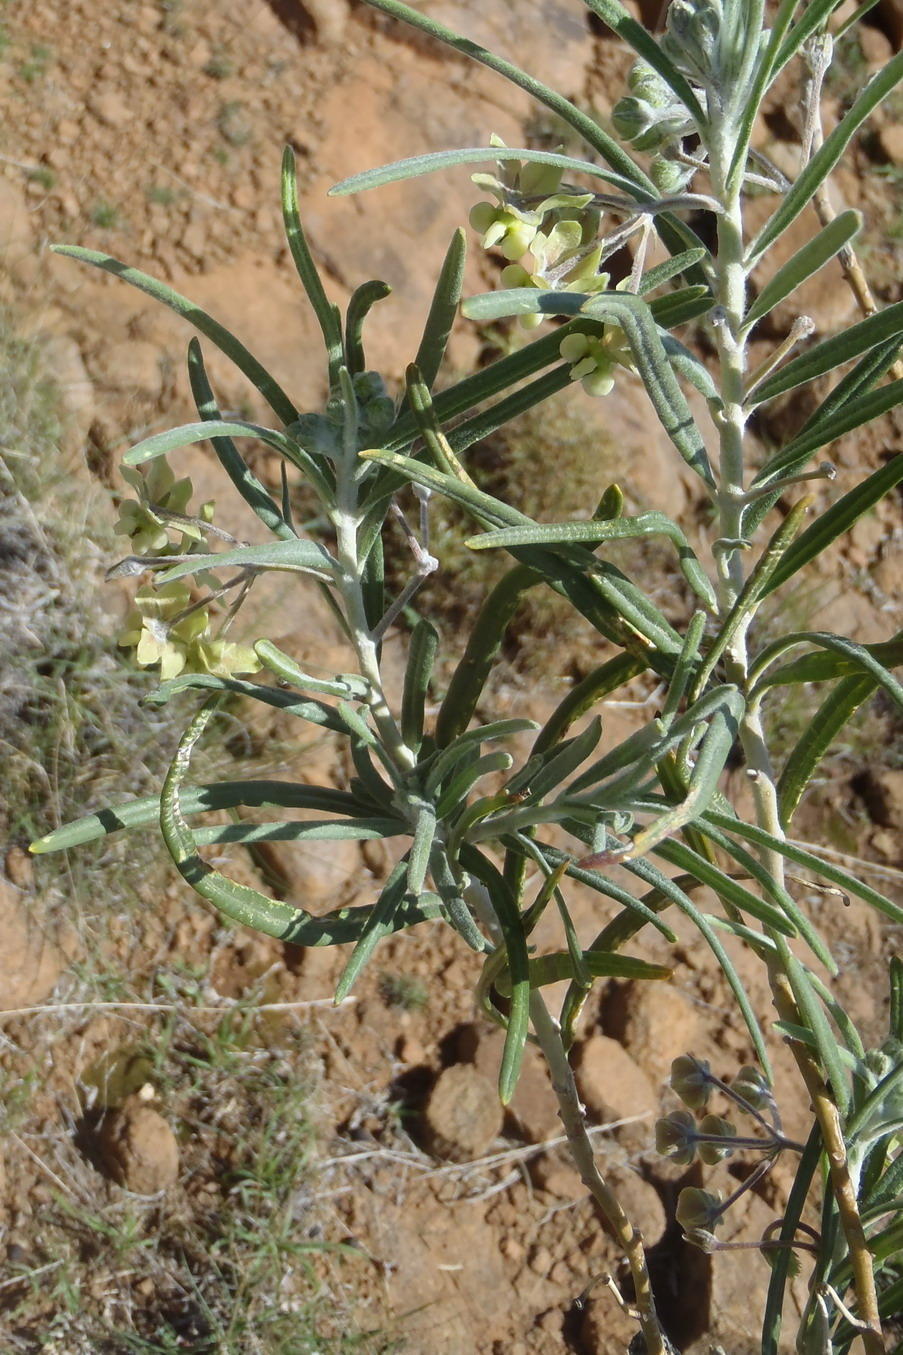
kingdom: Plantae
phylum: Tracheophyta
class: Magnoliopsida
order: Gentianales
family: Apocynaceae
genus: Gomphocarpus
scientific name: Gomphocarpus tomentosus
